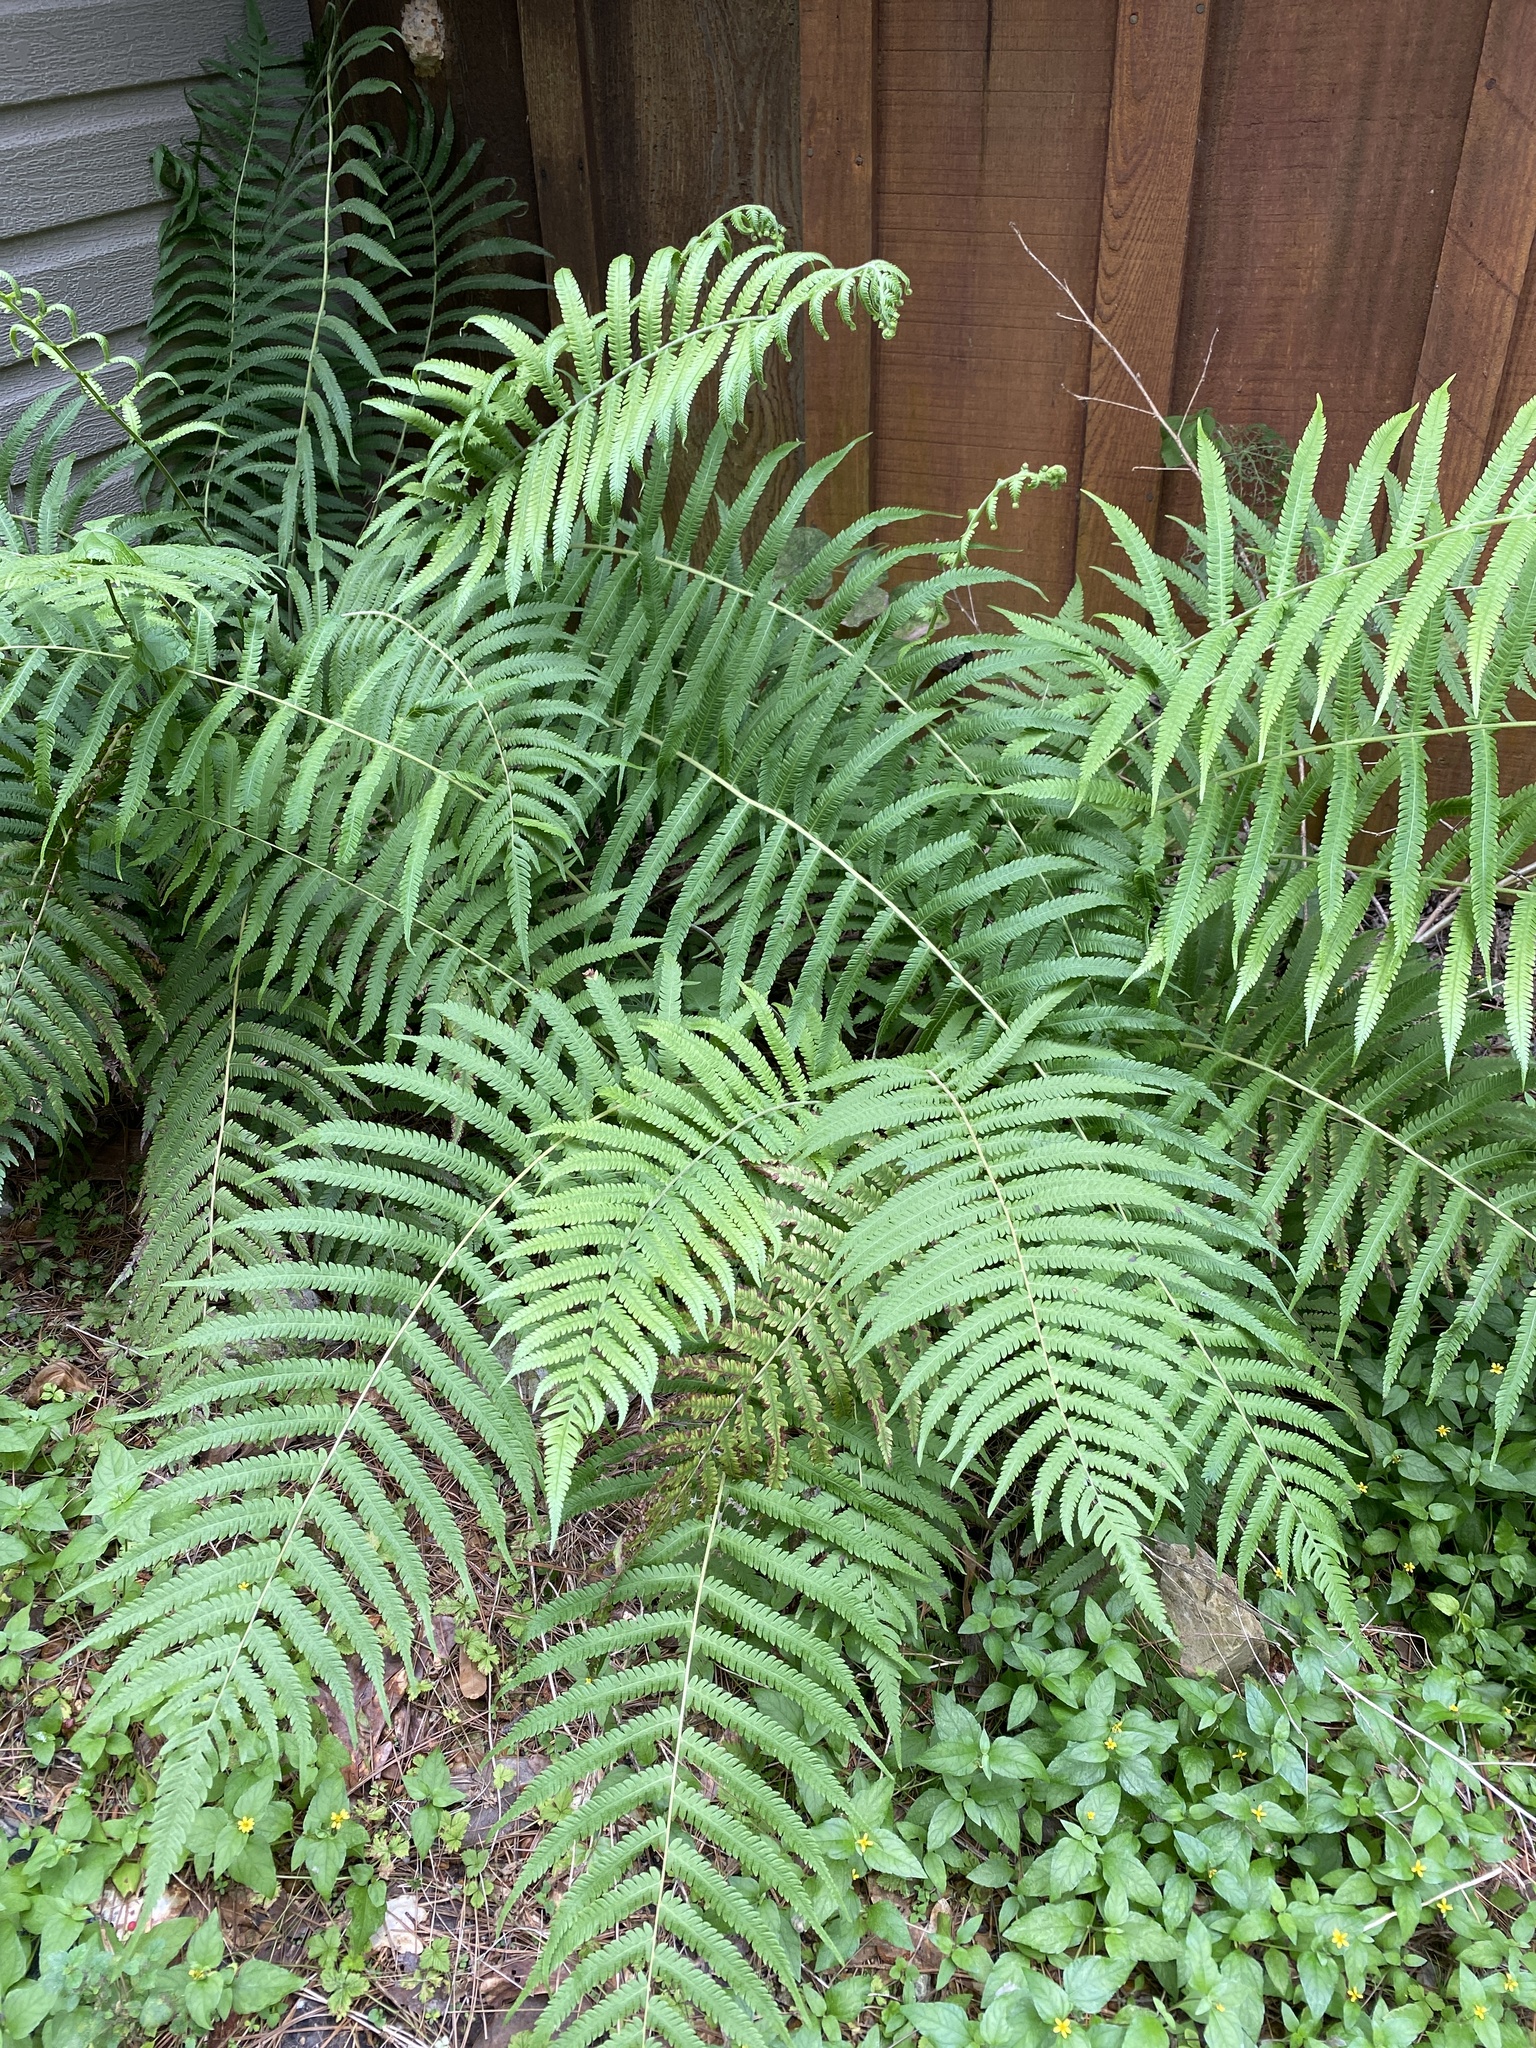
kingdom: Plantae
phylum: Tracheophyta
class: Polypodiopsida
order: Polypodiales
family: Thelypteridaceae
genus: Pelazoneuron
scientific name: Pelazoneuron kunthii
